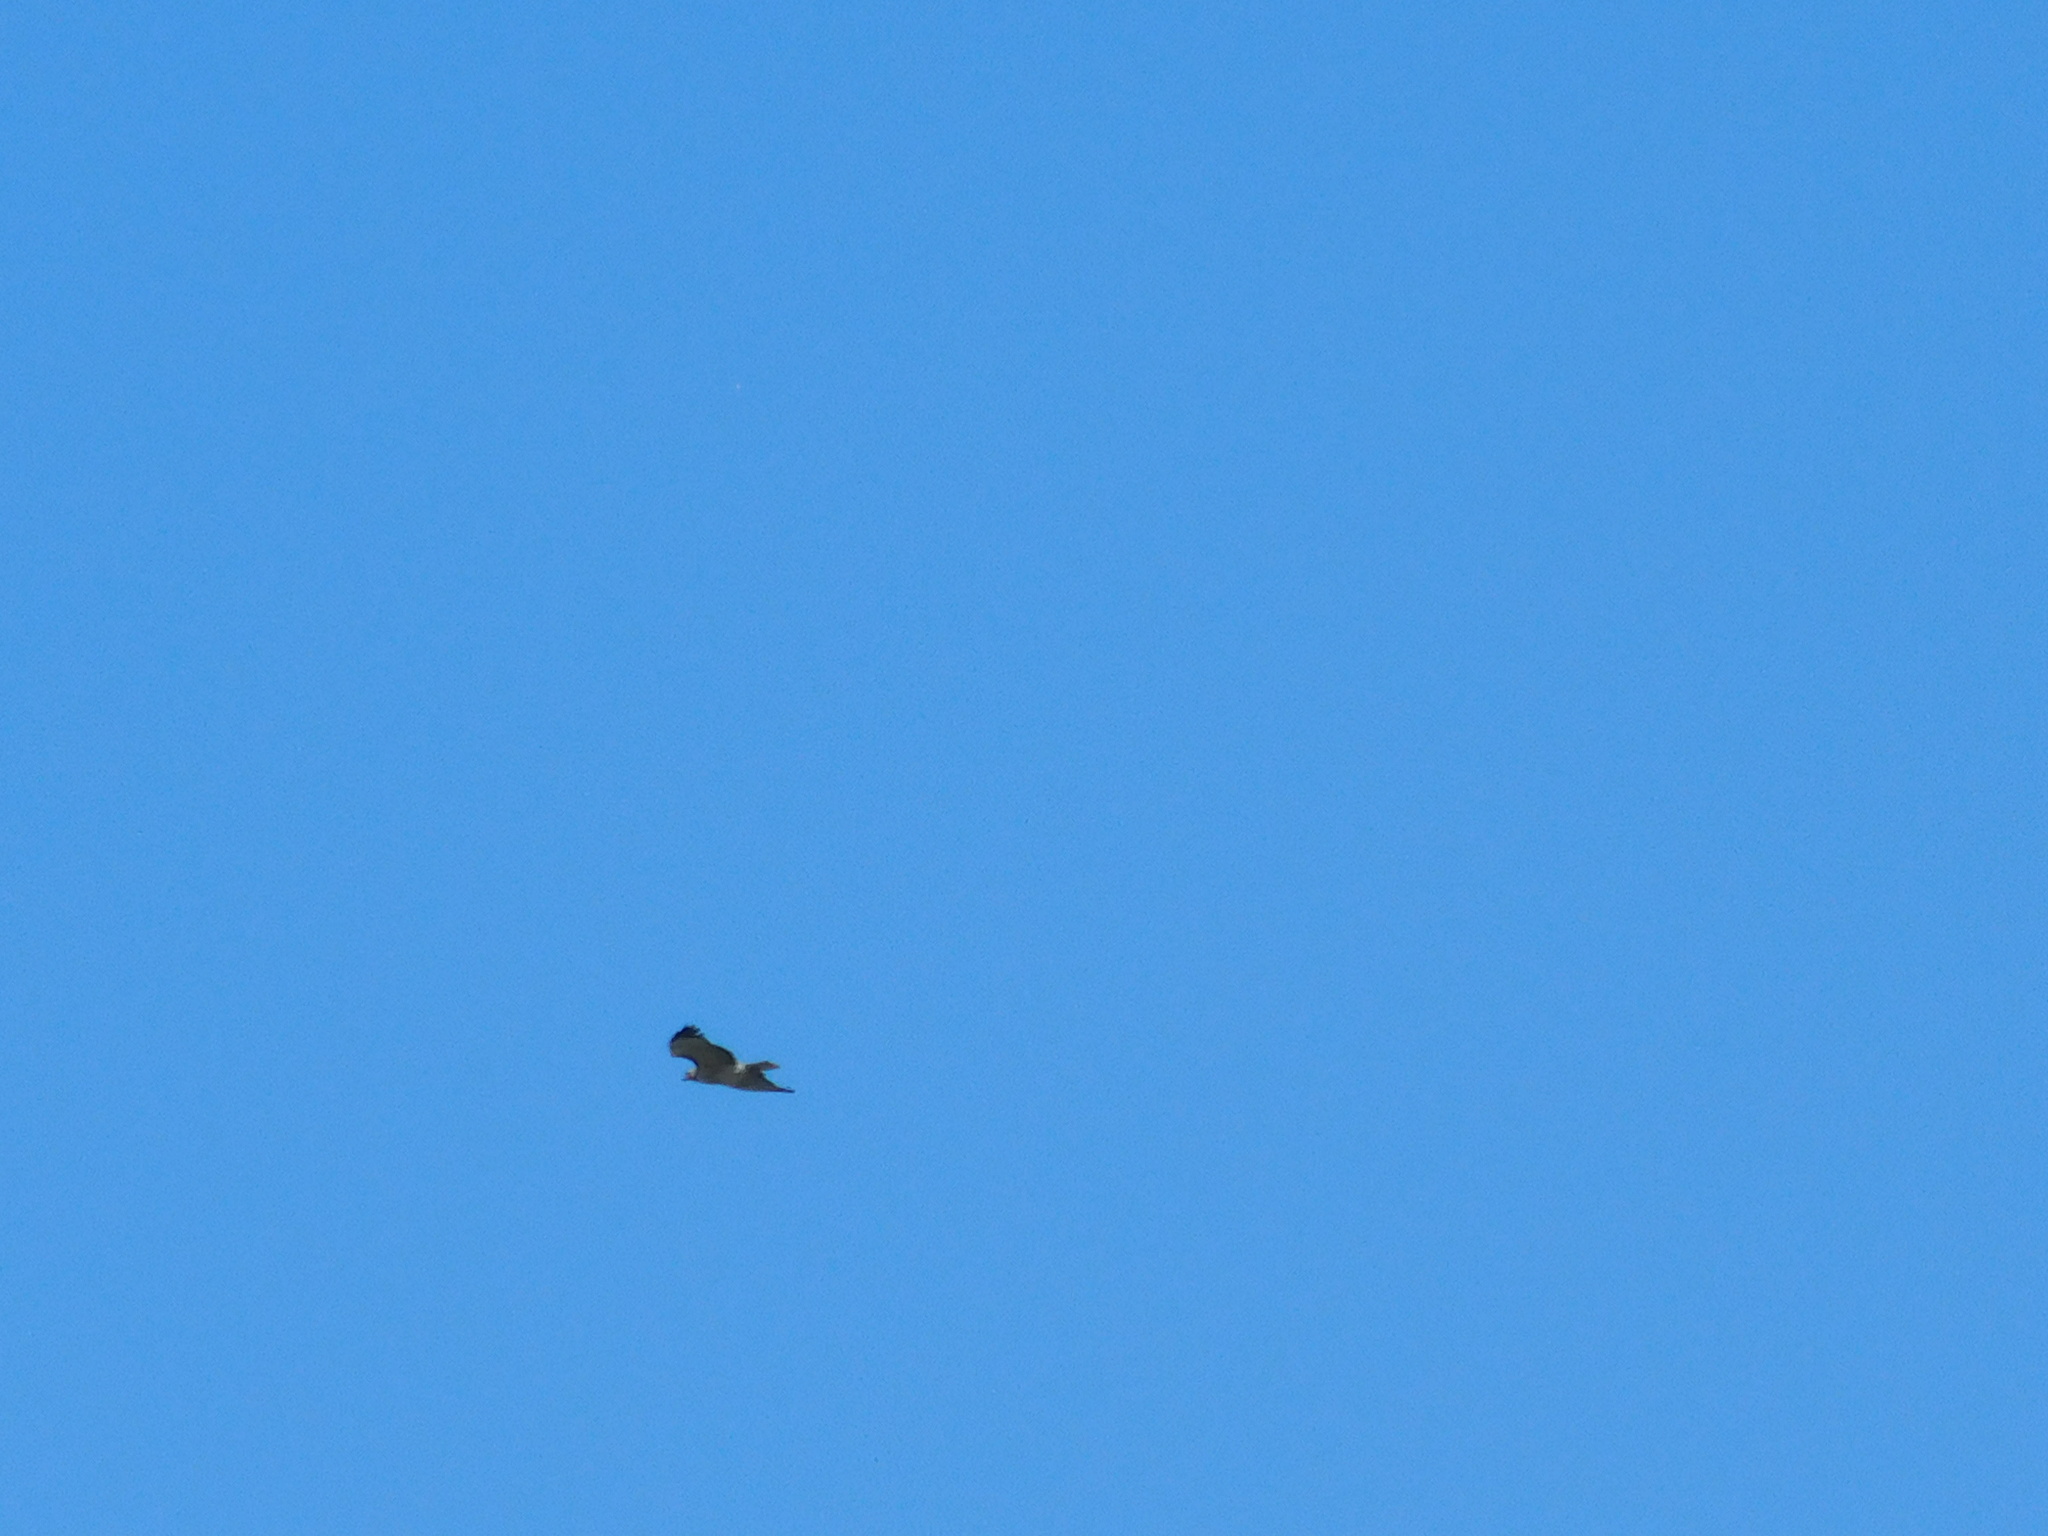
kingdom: Animalia
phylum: Chordata
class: Aves
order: Accipitriformes
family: Accipitridae
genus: Buteo
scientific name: Buteo jamaicensis
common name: Red-tailed hawk
